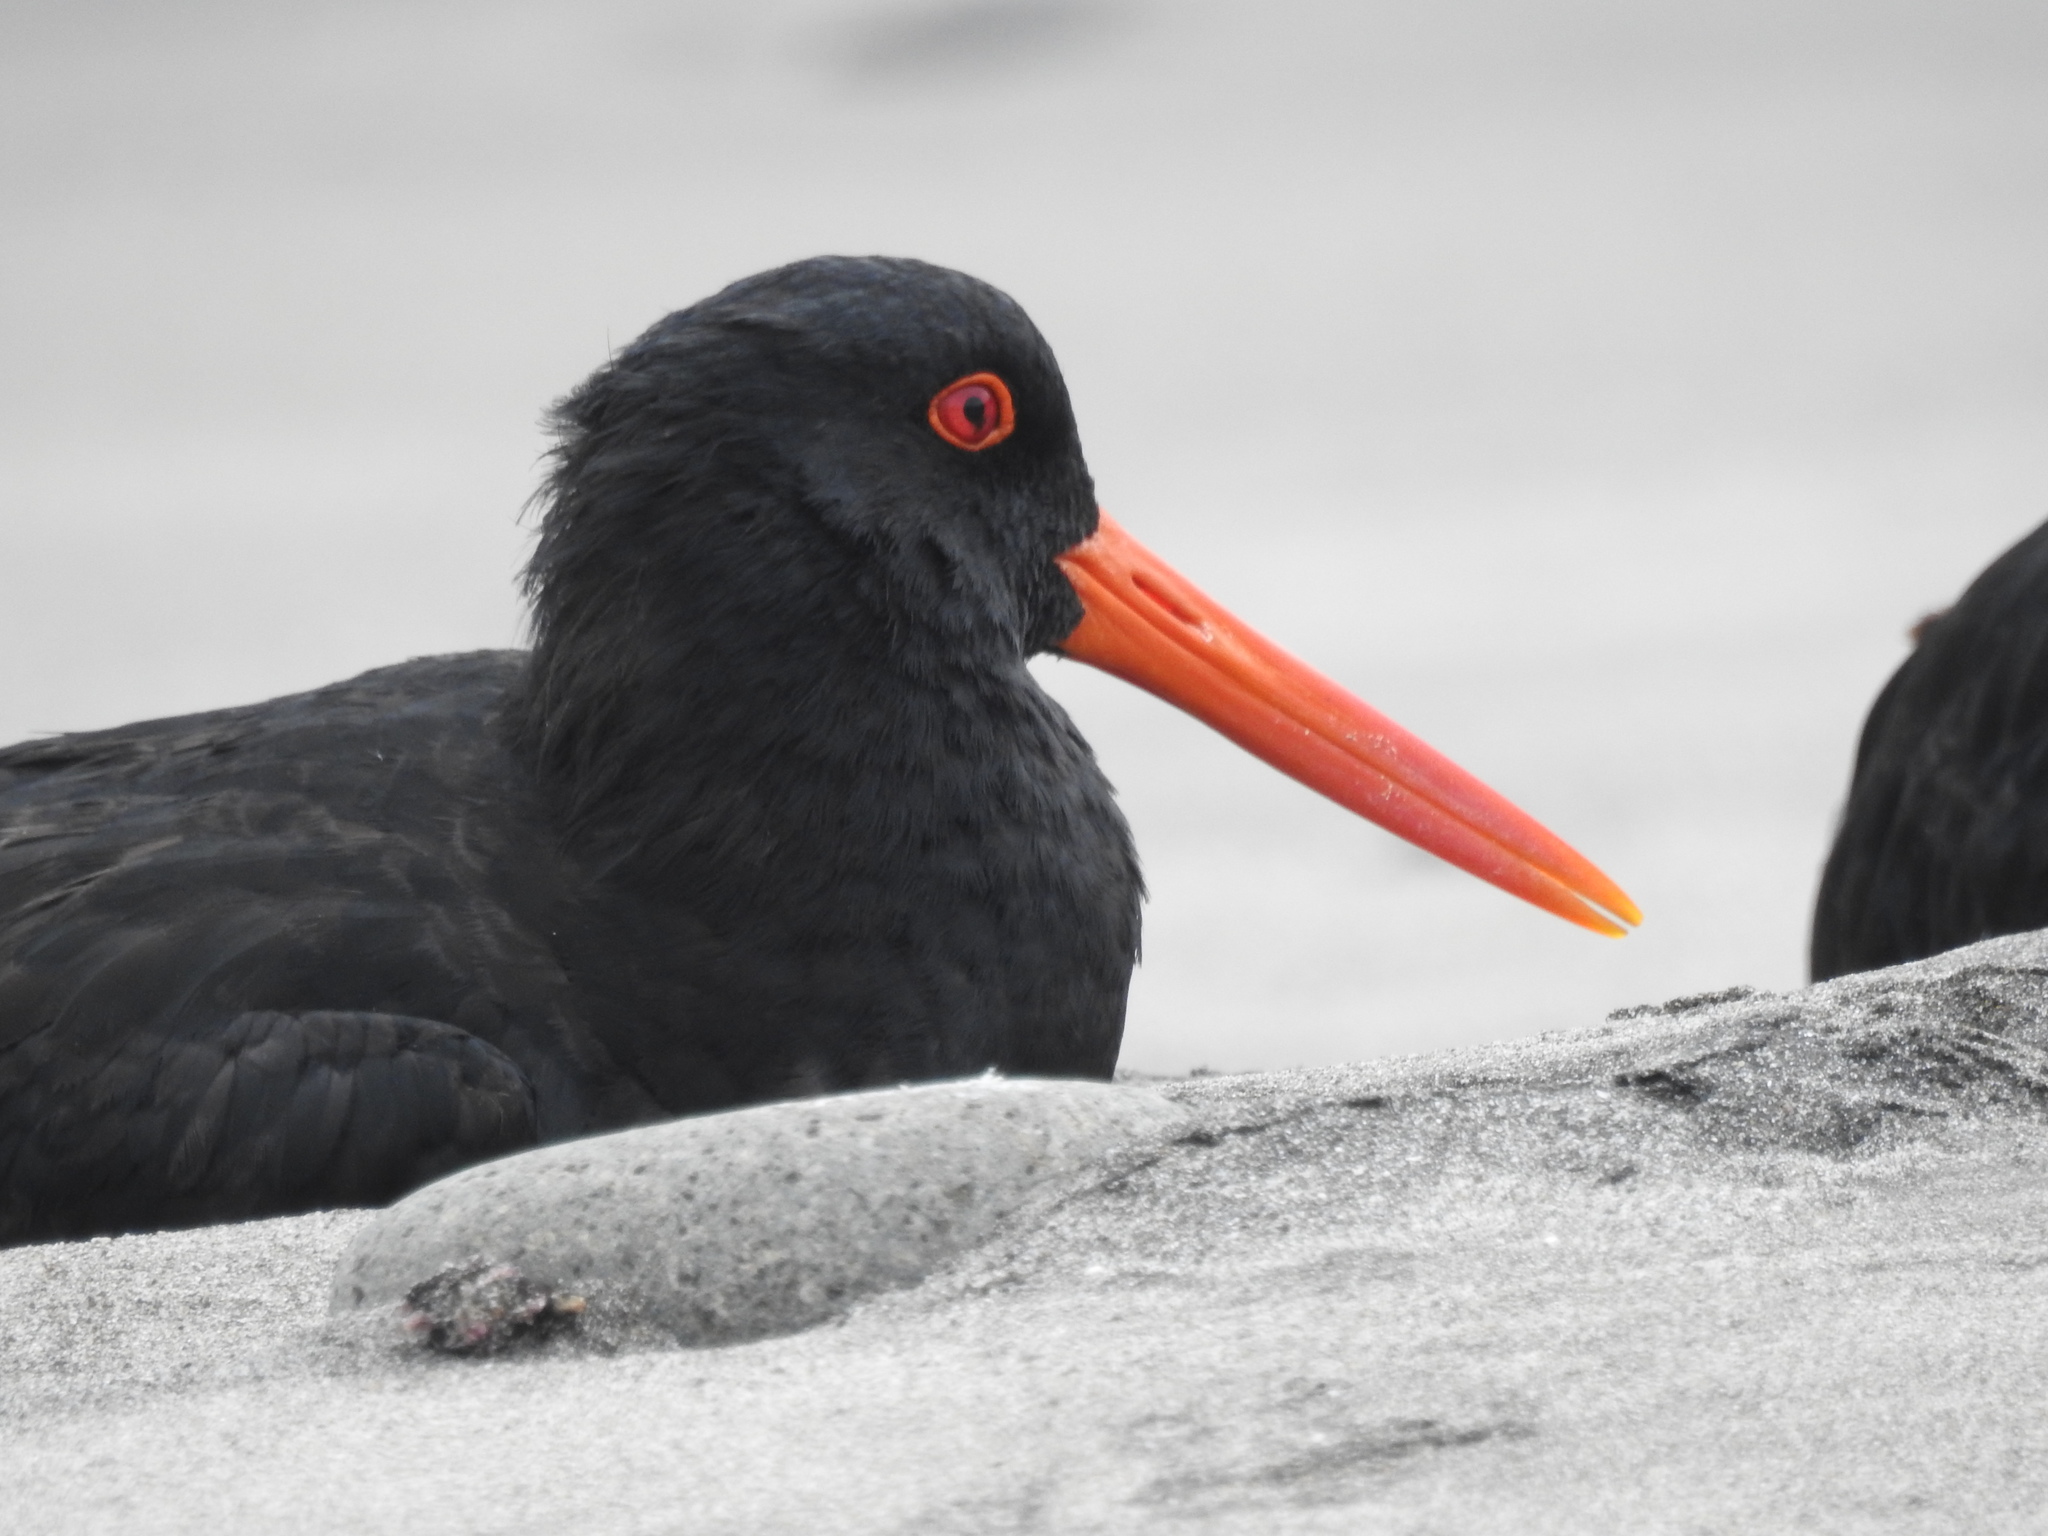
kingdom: Animalia
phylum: Chordata
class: Aves
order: Charadriiformes
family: Haematopodidae
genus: Haematopus
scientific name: Haematopus unicolor
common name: Variable oystercatcher
